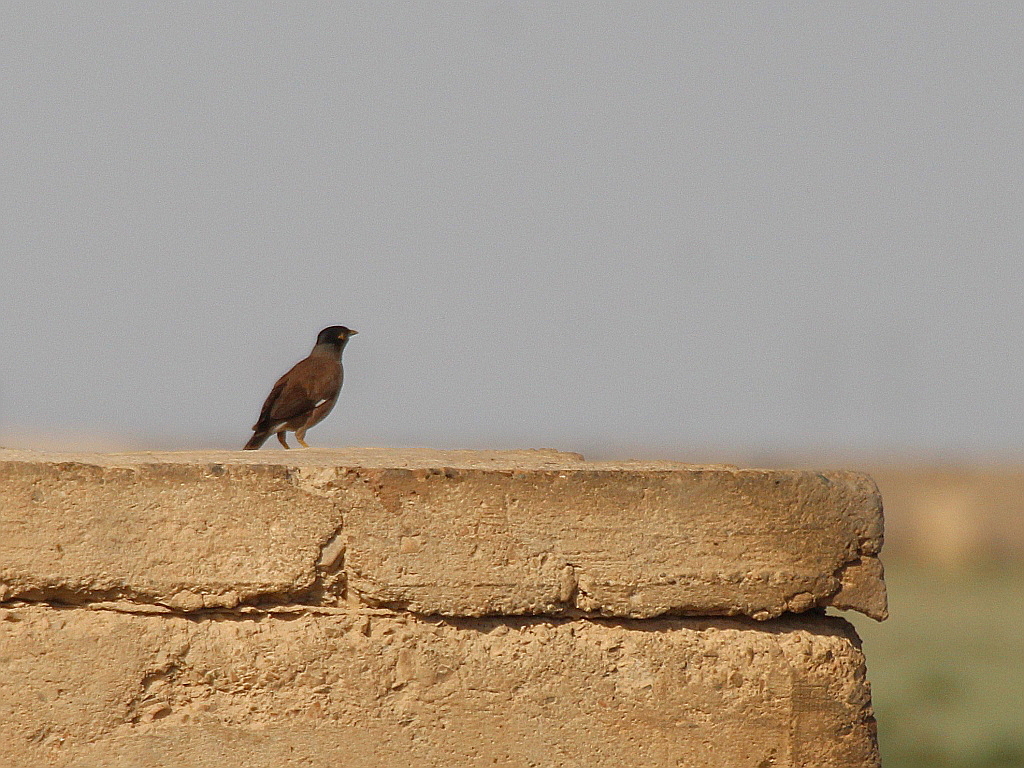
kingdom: Animalia
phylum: Chordata
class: Aves
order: Passeriformes
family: Sturnidae
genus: Acridotheres
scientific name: Acridotheres tristis
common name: Common myna
